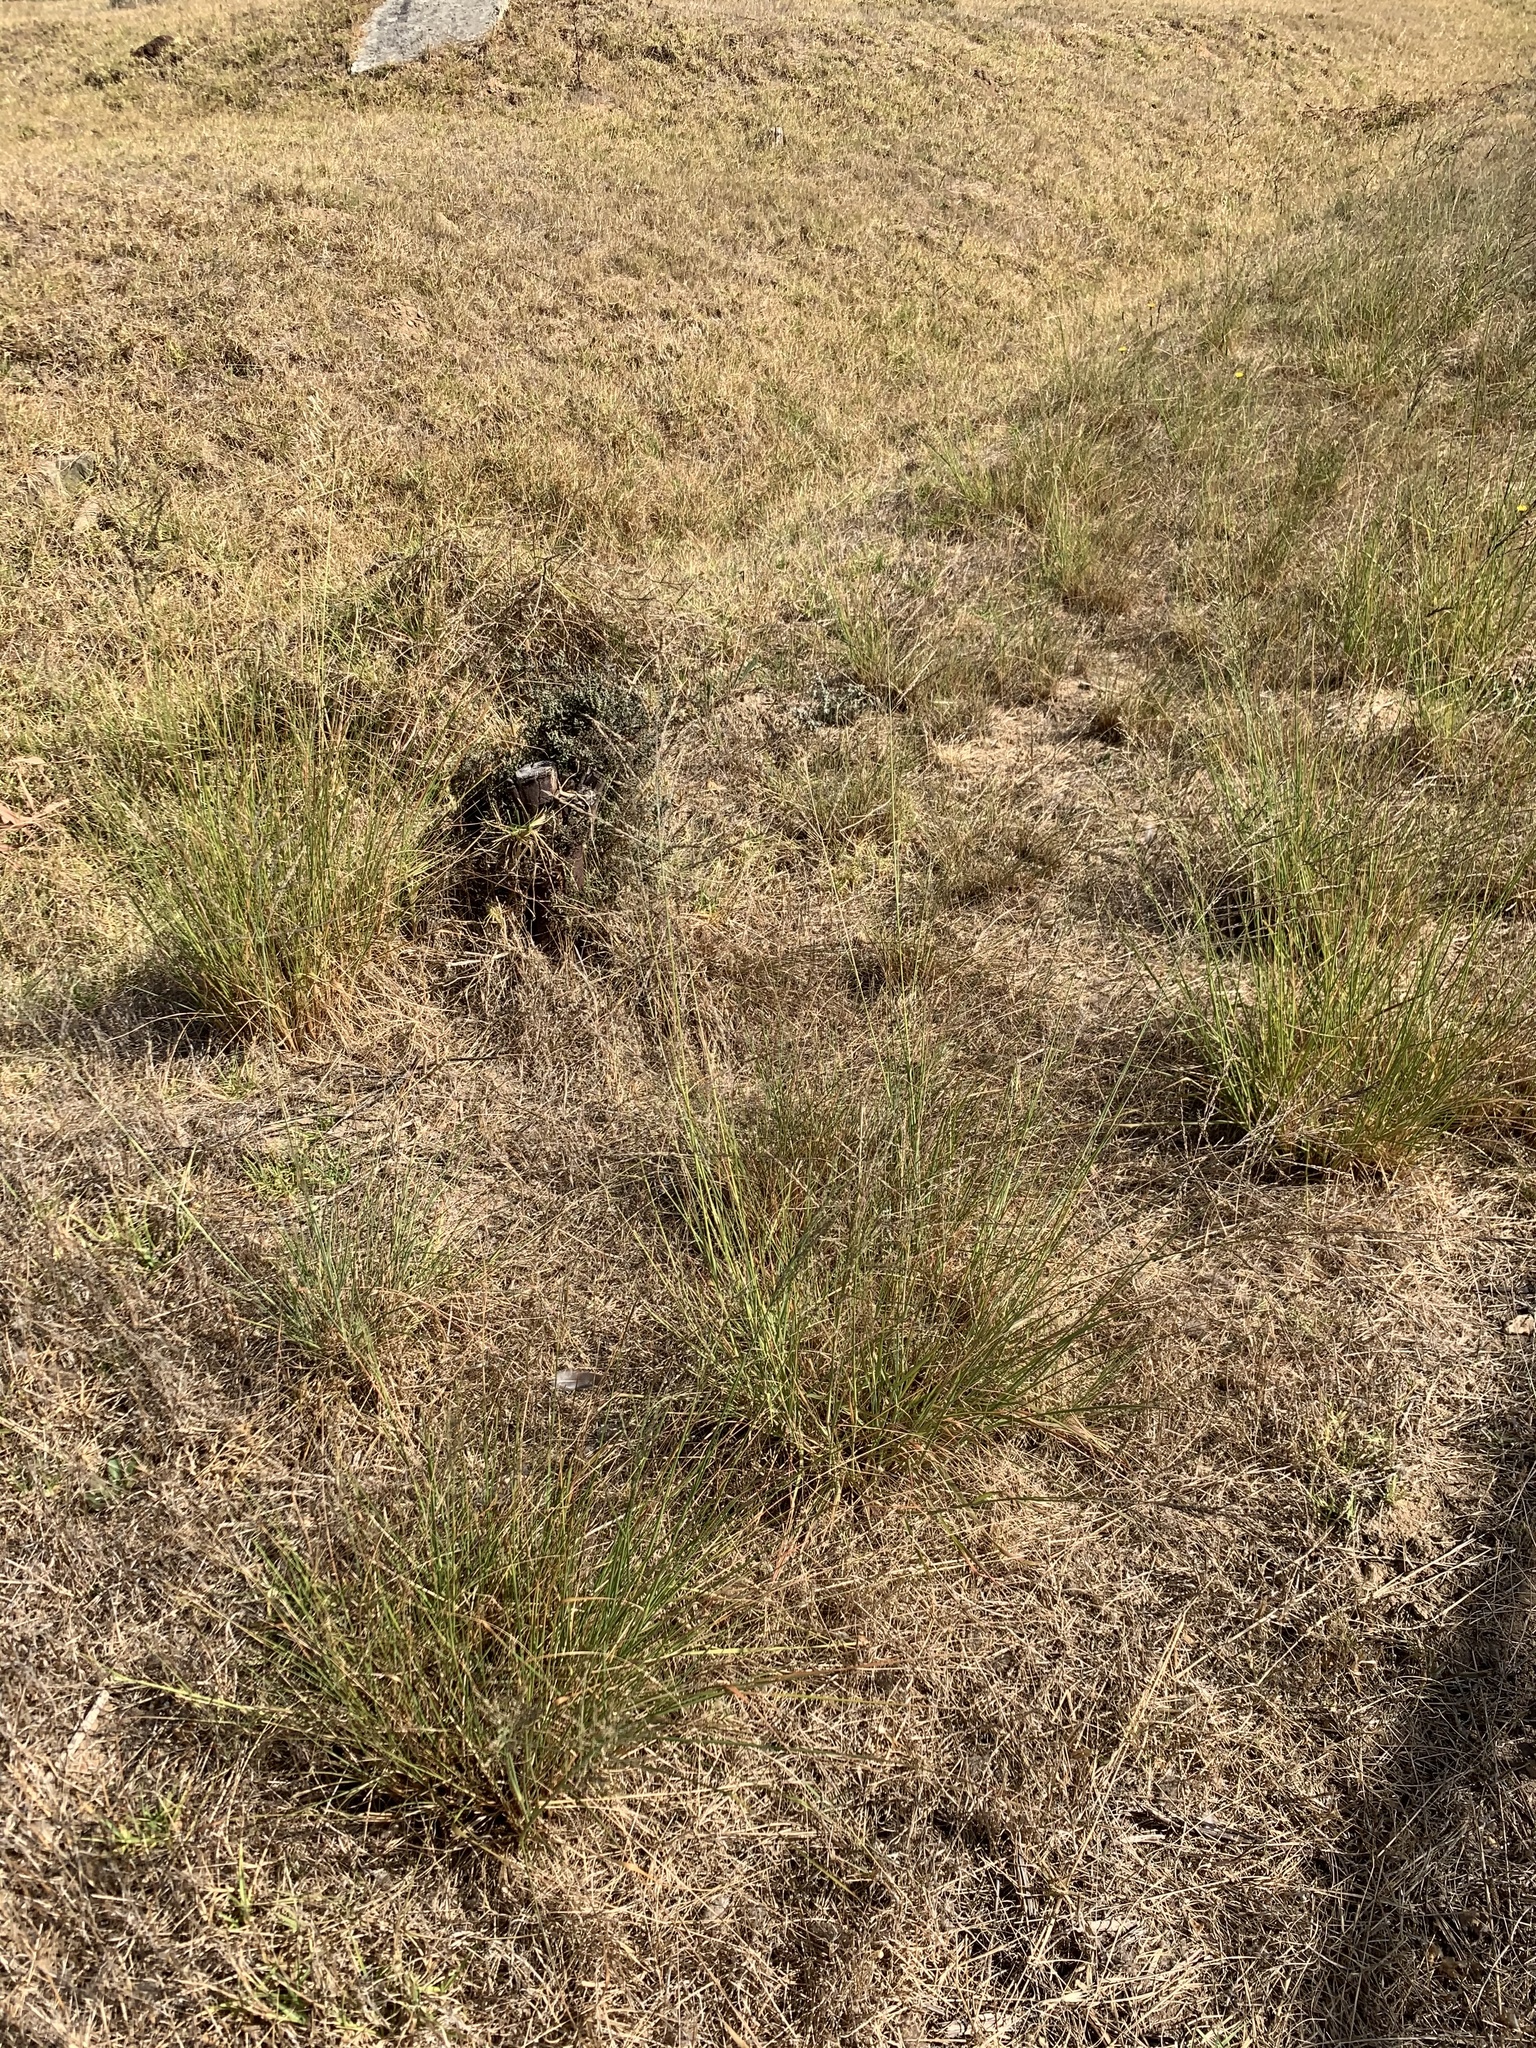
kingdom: Plantae
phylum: Tracheophyta
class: Liliopsida
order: Poales
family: Poaceae
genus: Eragrostis
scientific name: Eragrostis curvula
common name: African love-grass
